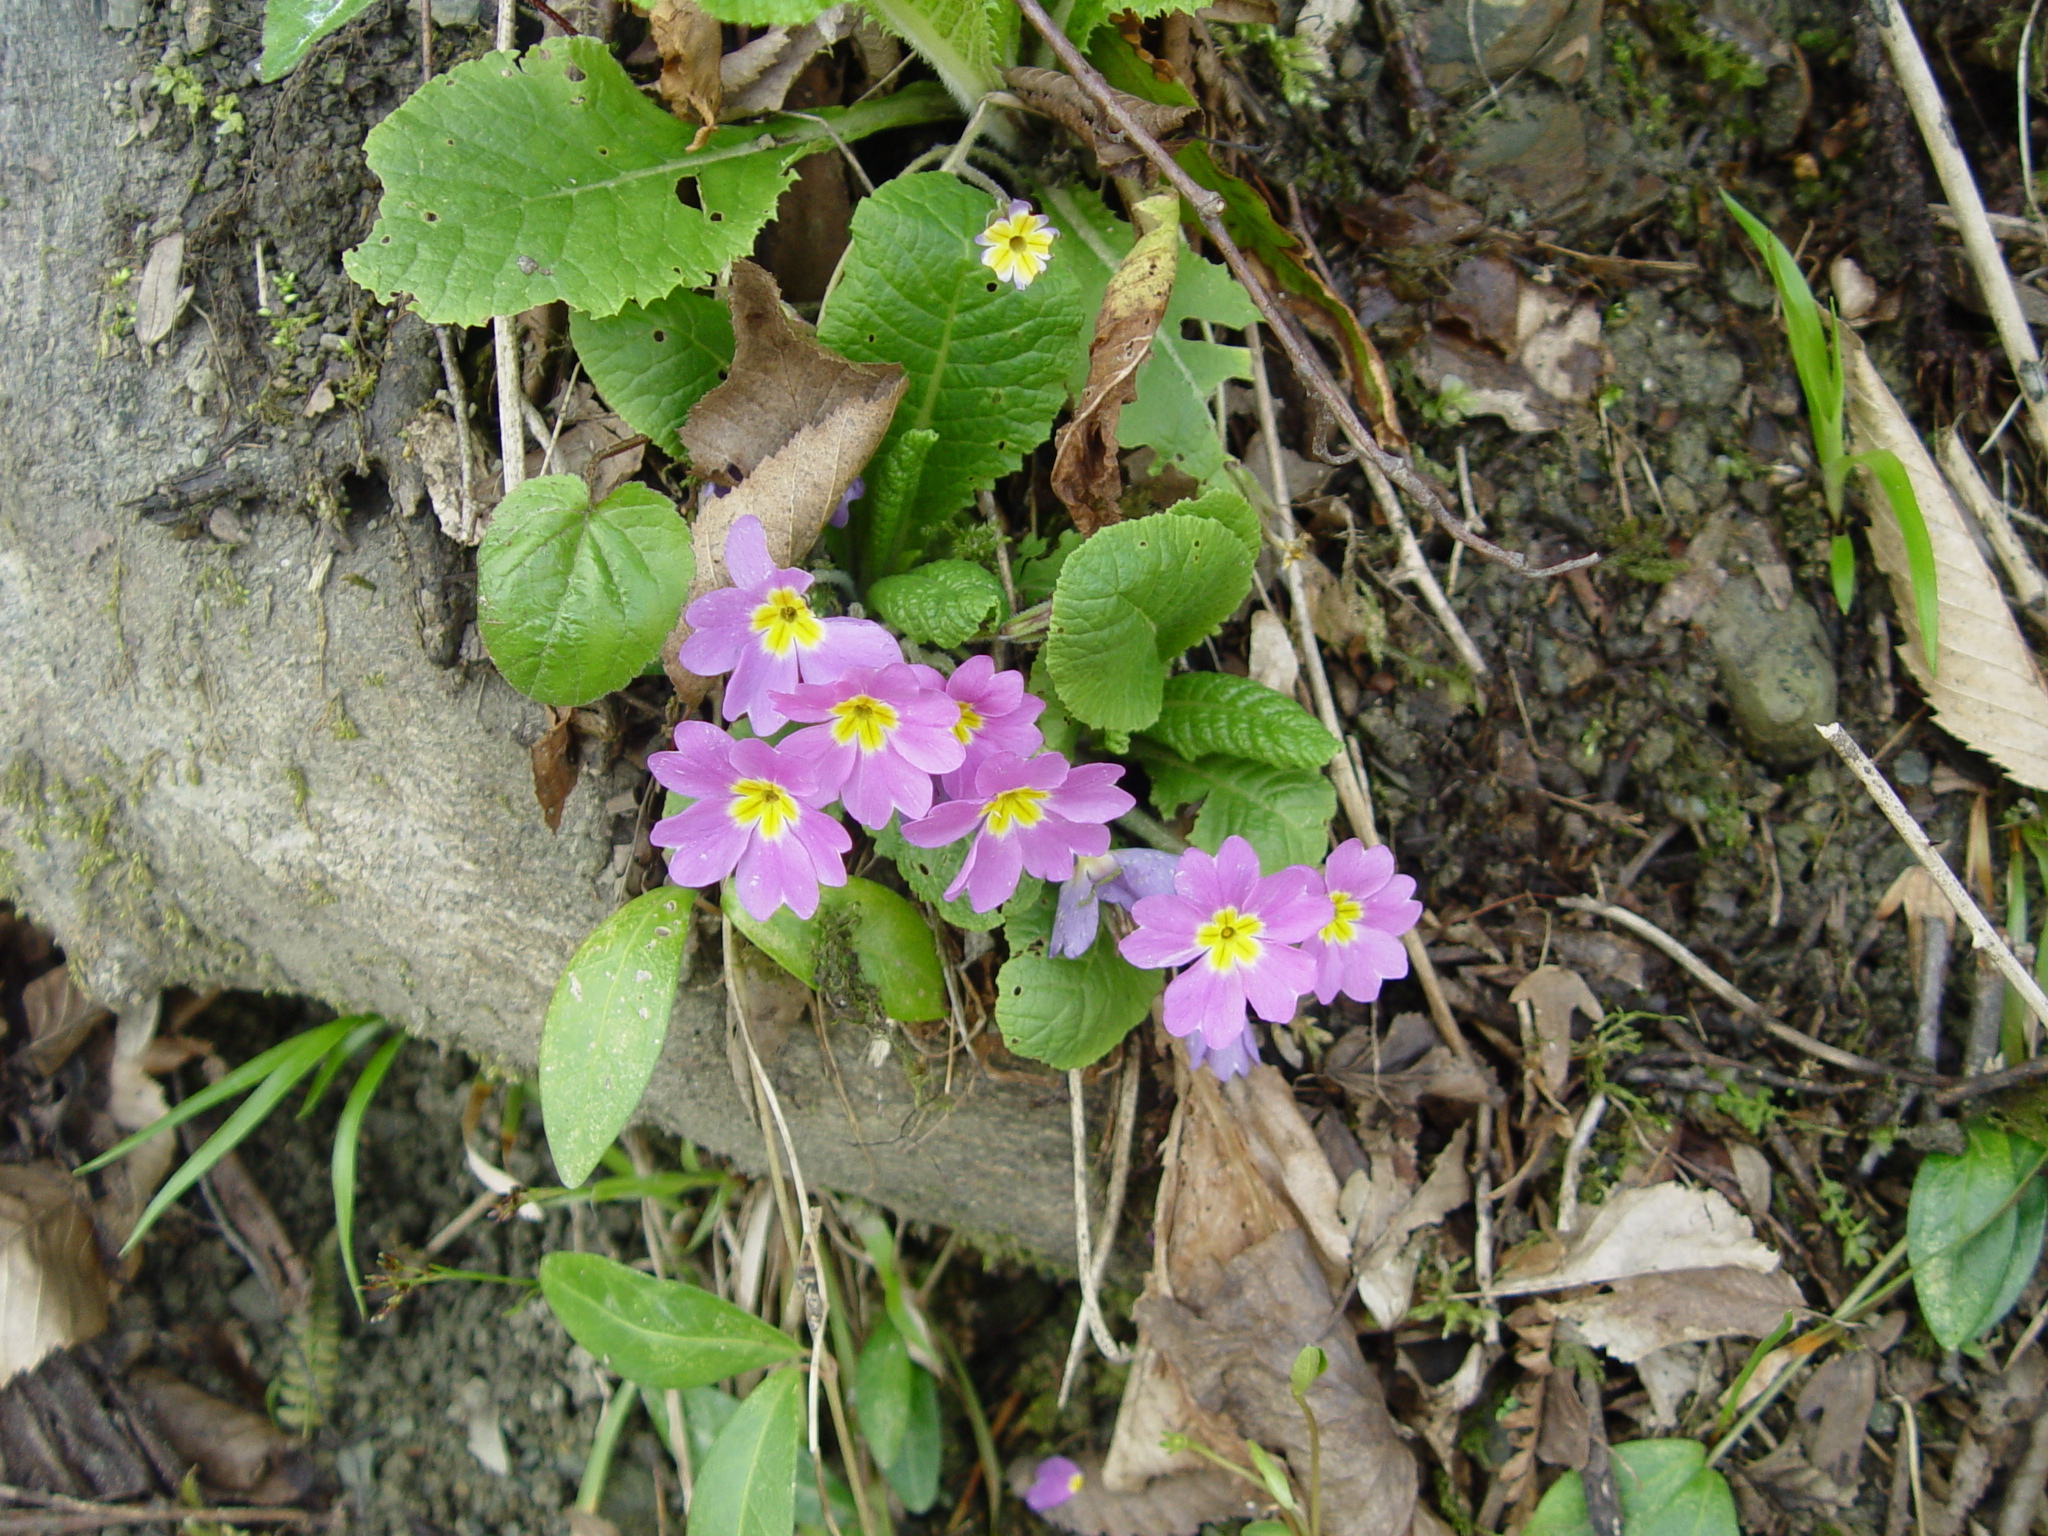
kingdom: Plantae
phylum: Tracheophyta
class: Magnoliopsida
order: Ericales
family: Primulaceae
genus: Primula
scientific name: Primula vulgaris
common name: Primrose
